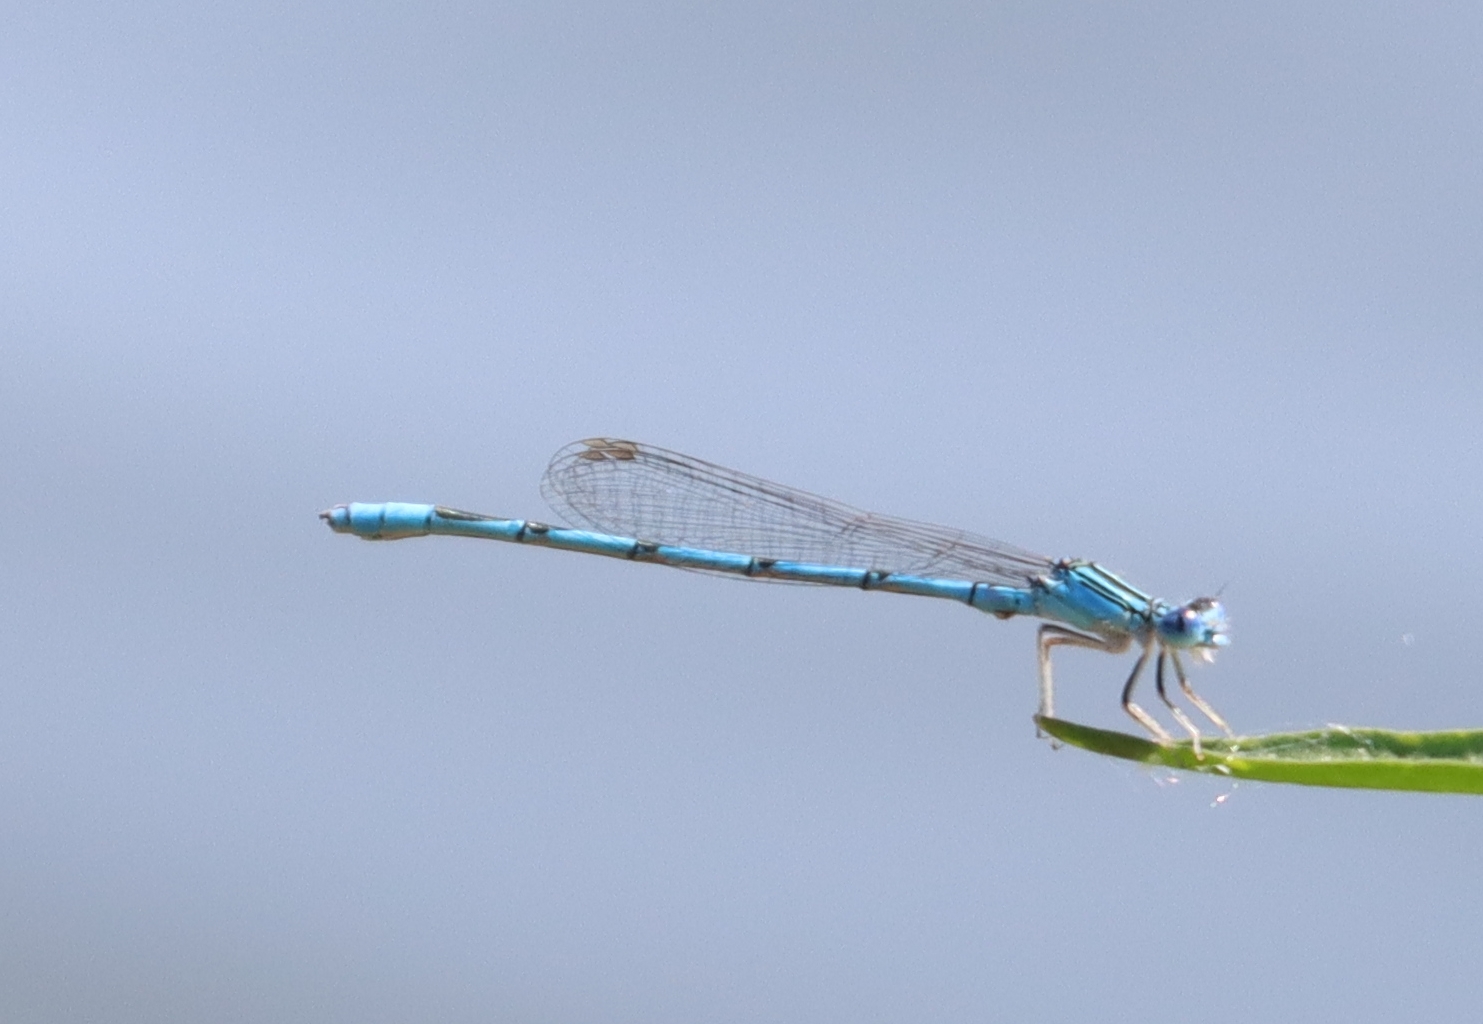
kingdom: Animalia
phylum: Arthropoda
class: Insecta
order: Odonata
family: Coenagrionidae
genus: Enallagma
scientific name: Enallagma basidens
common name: Double-striped bluet
